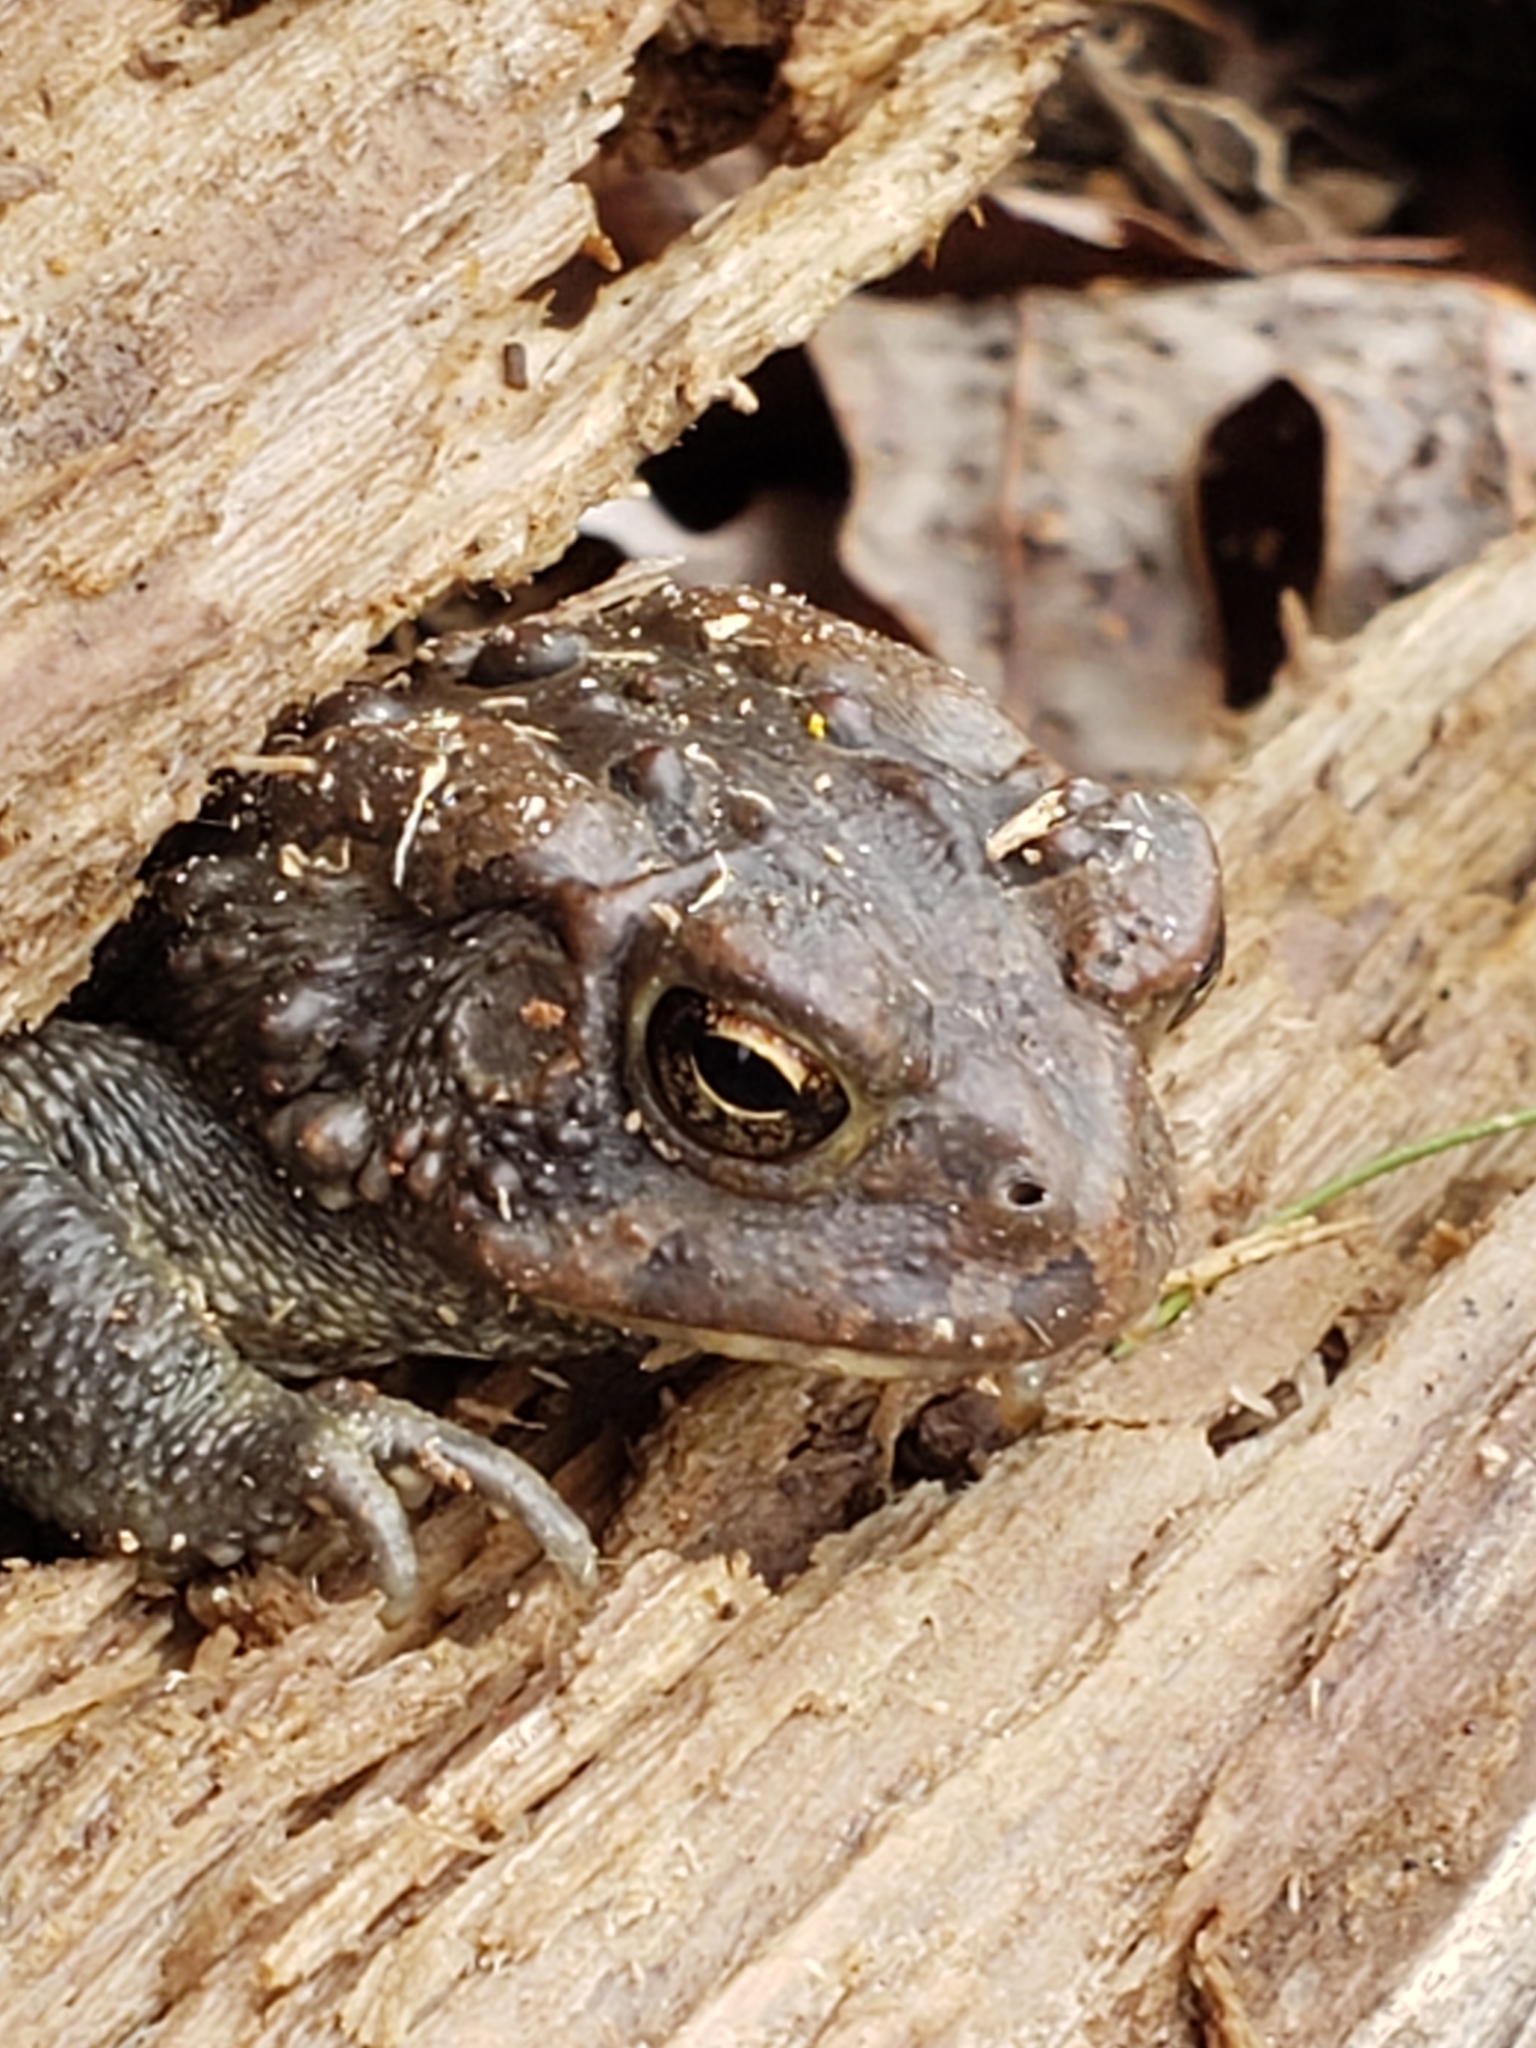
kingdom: Animalia
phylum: Chordata
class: Amphibia
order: Anura
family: Bufonidae
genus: Anaxyrus
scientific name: Anaxyrus americanus
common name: American toad
